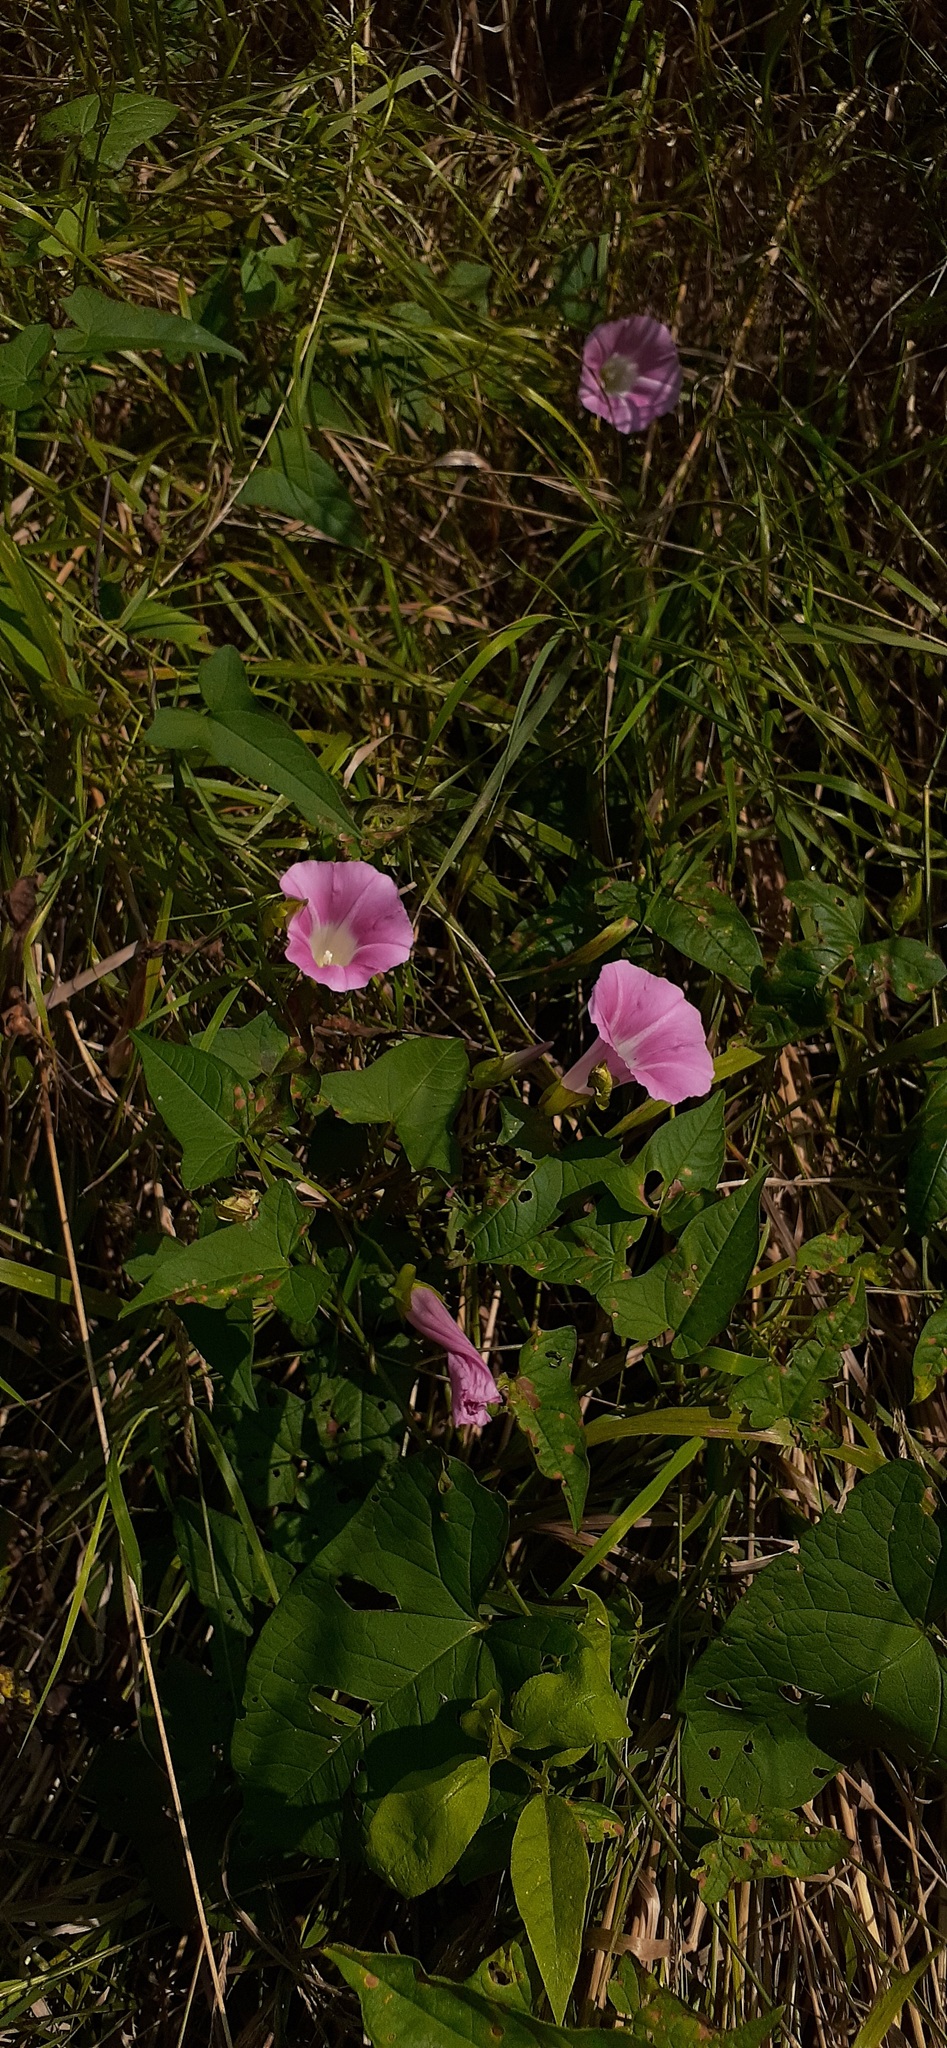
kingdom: Plantae
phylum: Tracheophyta
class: Magnoliopsida
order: Solanales
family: Convolvulaceae
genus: Calystegia
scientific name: Calystegia sepium
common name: Hedge bindweed
